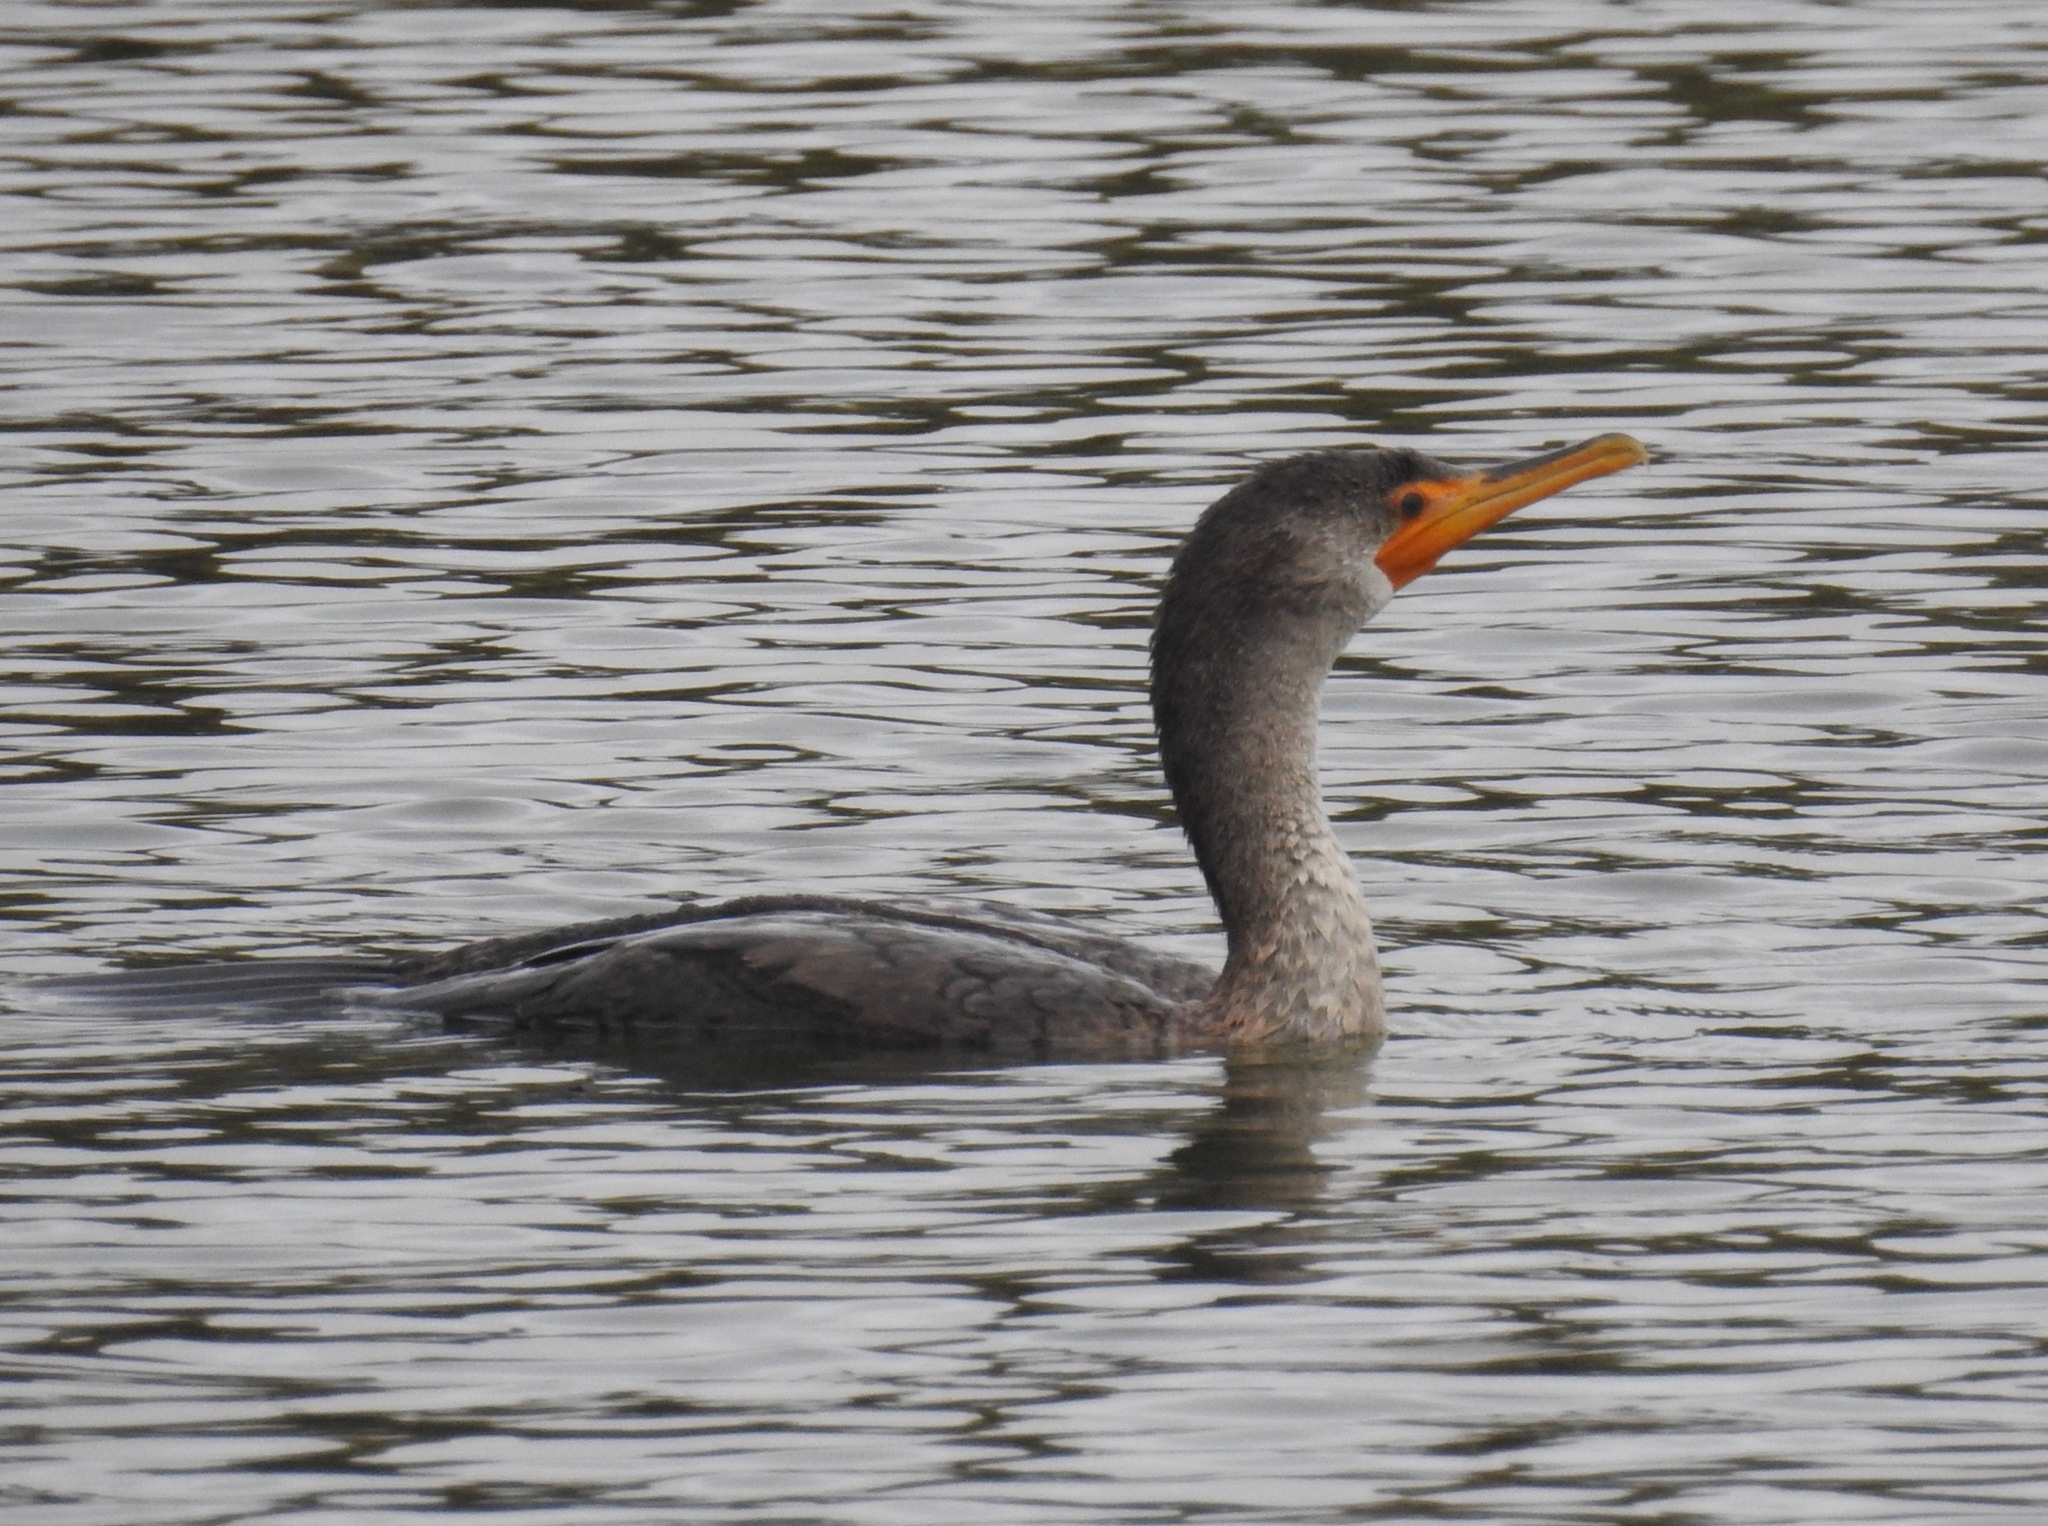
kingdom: Animalia
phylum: Chordata
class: Aves
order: Suliformes
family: Phalacrocoracidae
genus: Phalacrocorax
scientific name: Phalacrocorax auritus
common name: Double-crested cormorant
